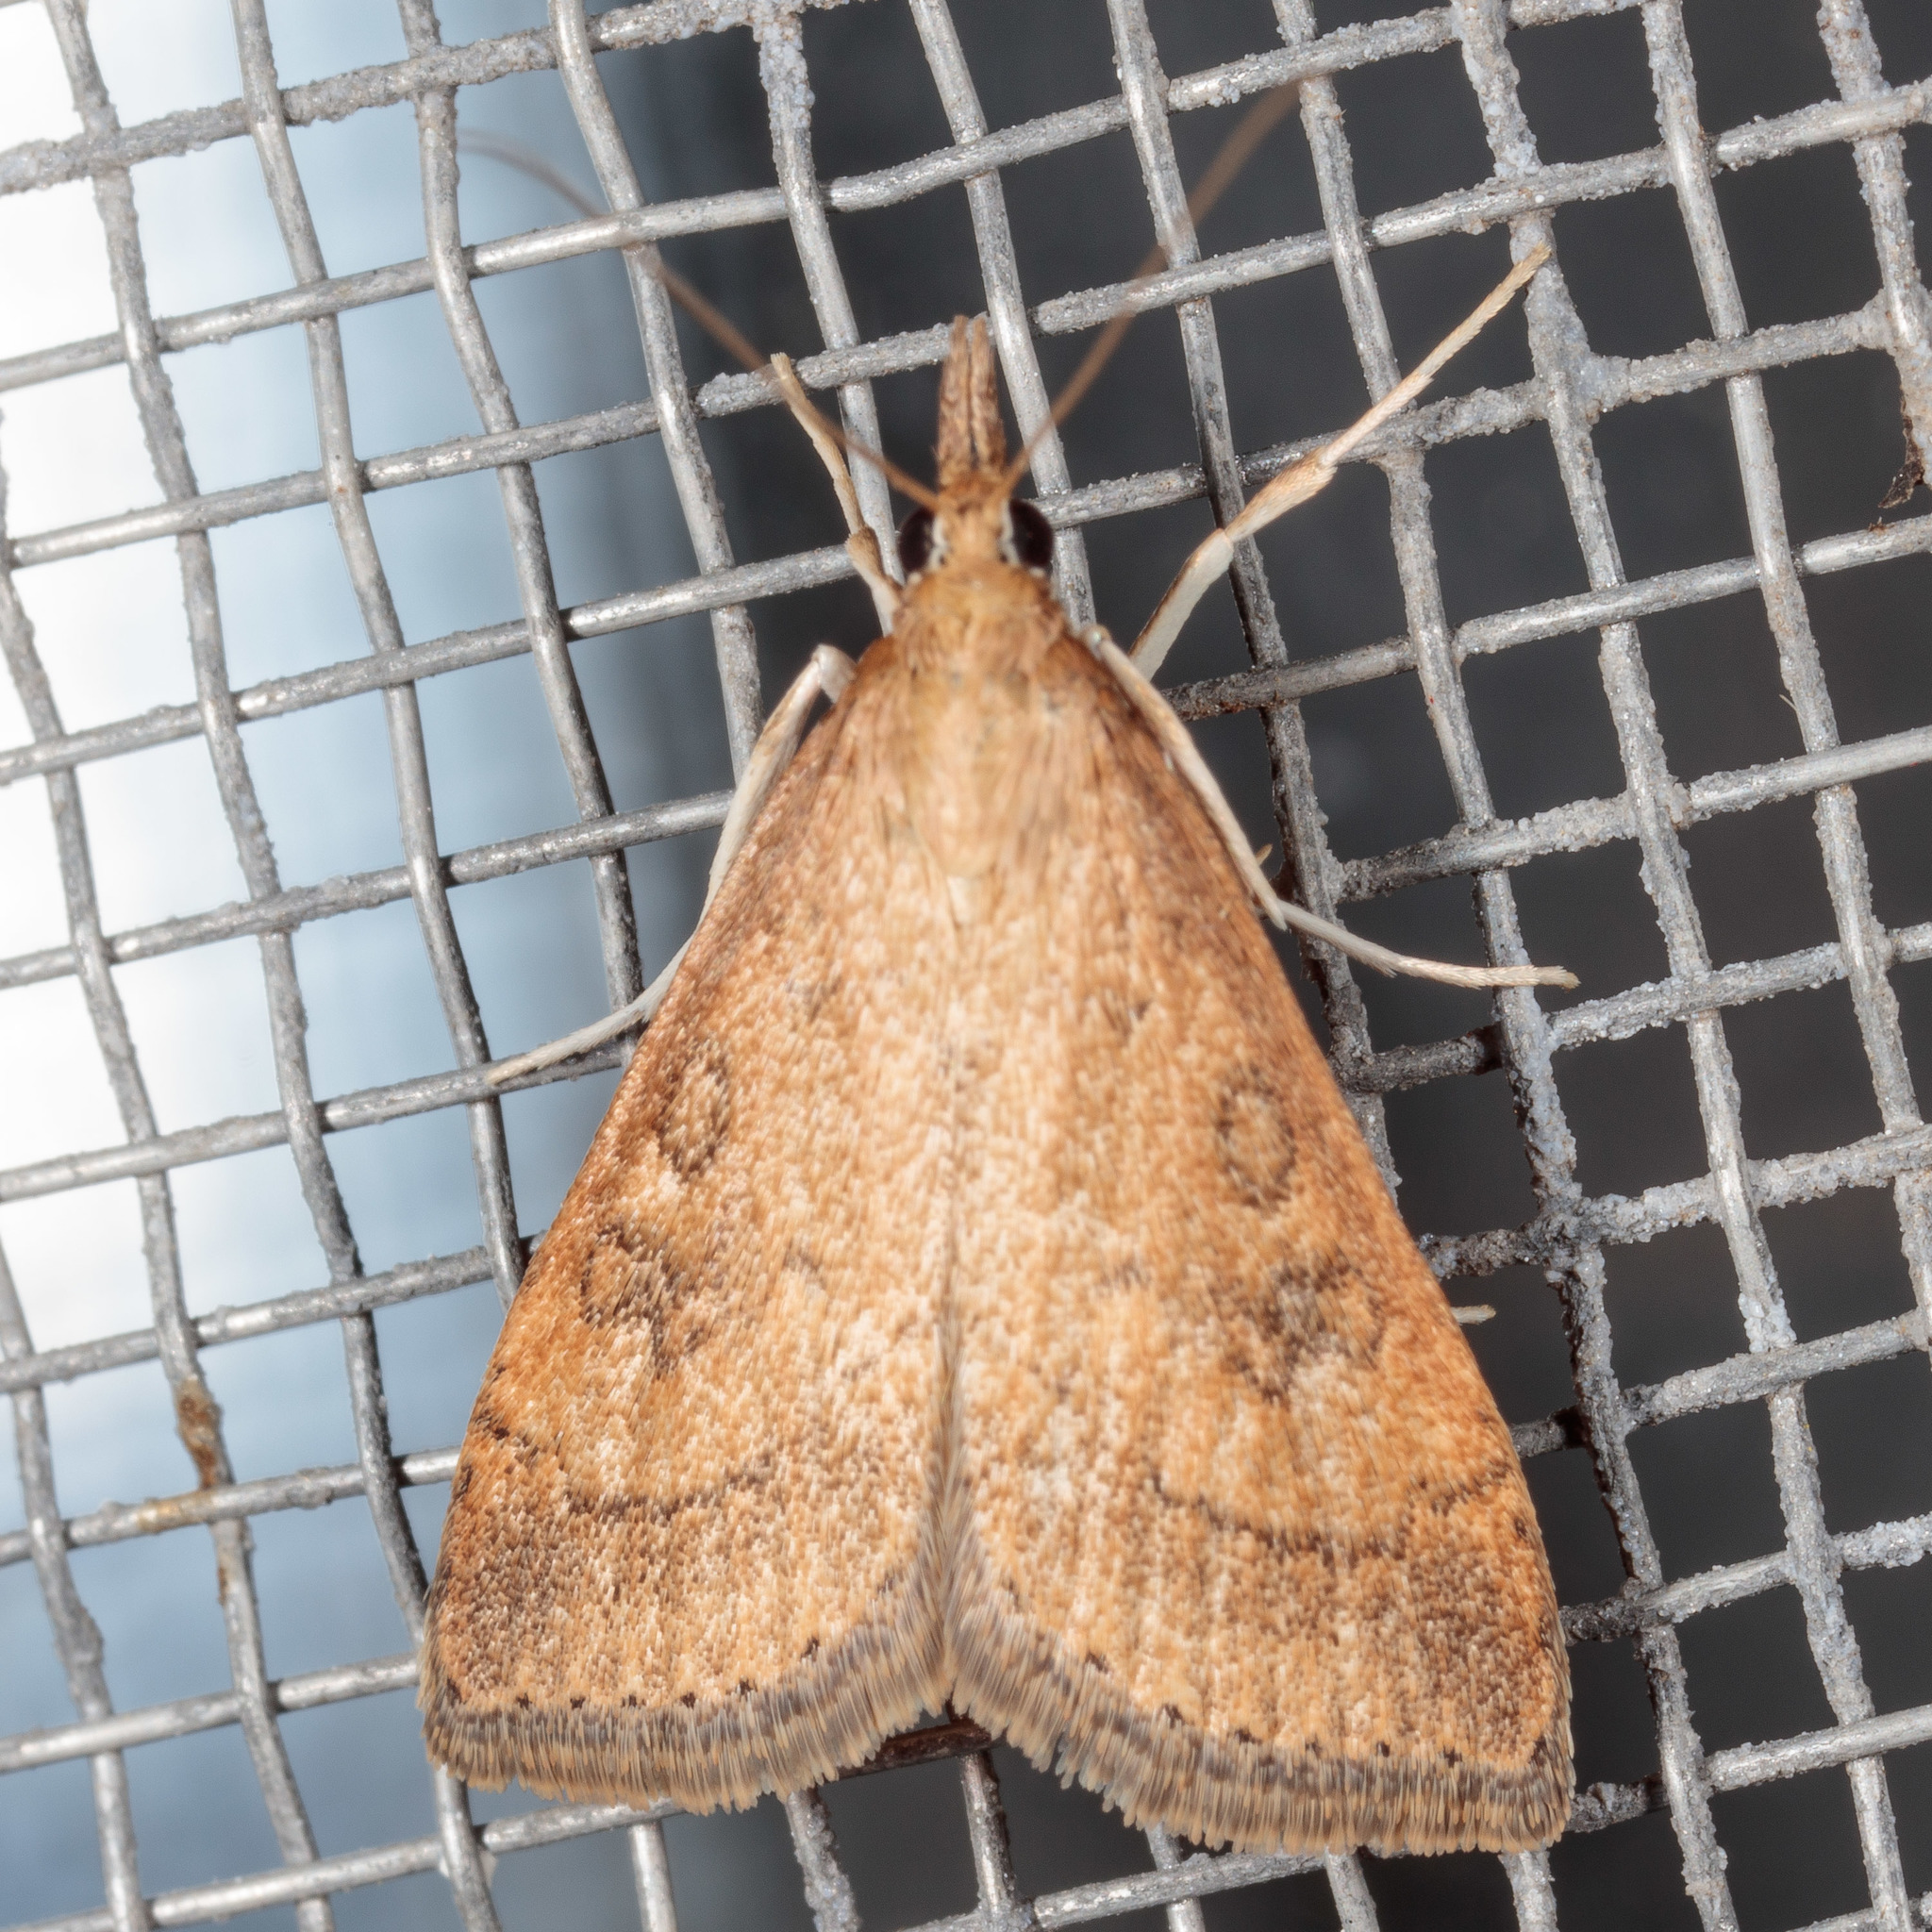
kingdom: Animalia
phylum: Arthropoda
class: Insecta
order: Lepidoptera
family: Crambidae
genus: Udea
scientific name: Udea rubigalis
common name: Celery leaftier moth
